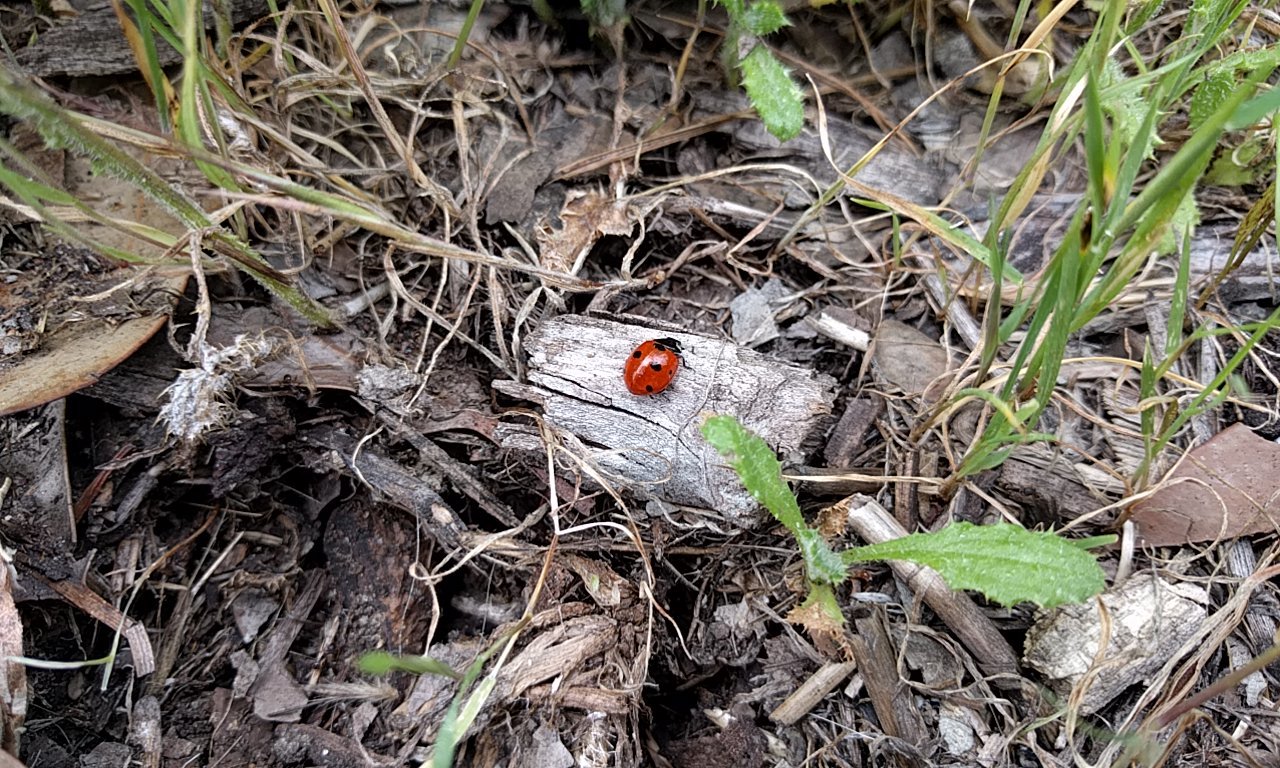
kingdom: Animalia
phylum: Arthropoda
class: Insecta
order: Coleoptera
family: Coccinellidae
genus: Coccinella
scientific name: Coccinella septempunctata
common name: Sevenspotted lady beetle
